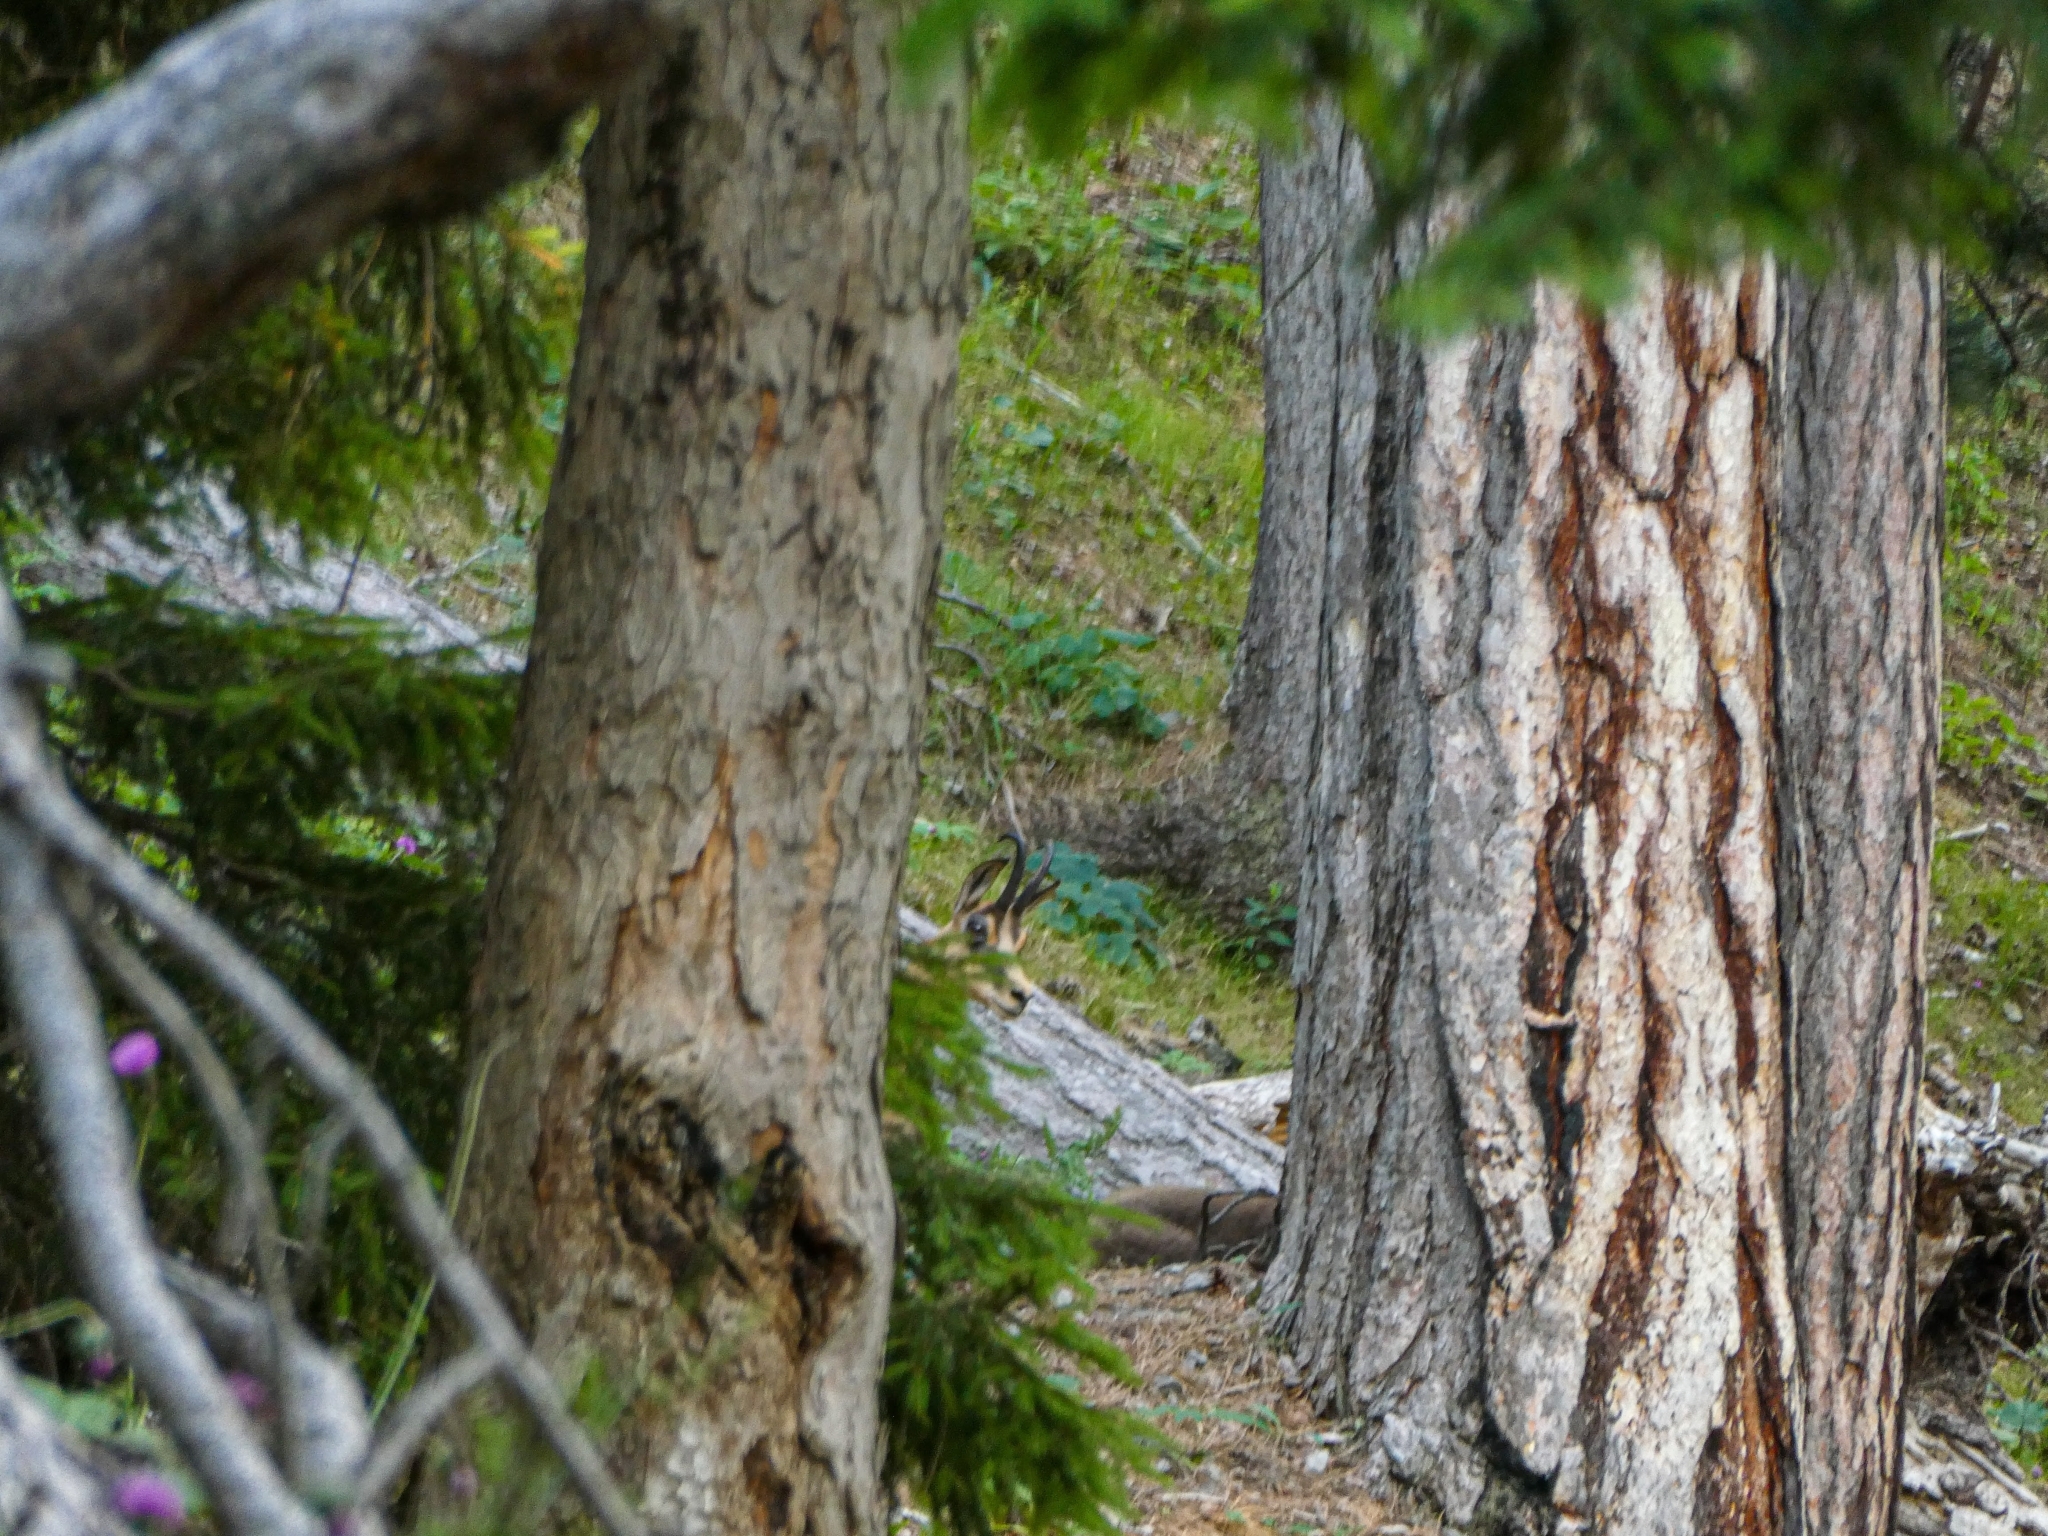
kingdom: Animalia
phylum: Chordata
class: Mammalia
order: Artiodactyla
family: Bovidae
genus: Rupicapra
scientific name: Rupicapra rupicapra
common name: Chamois
